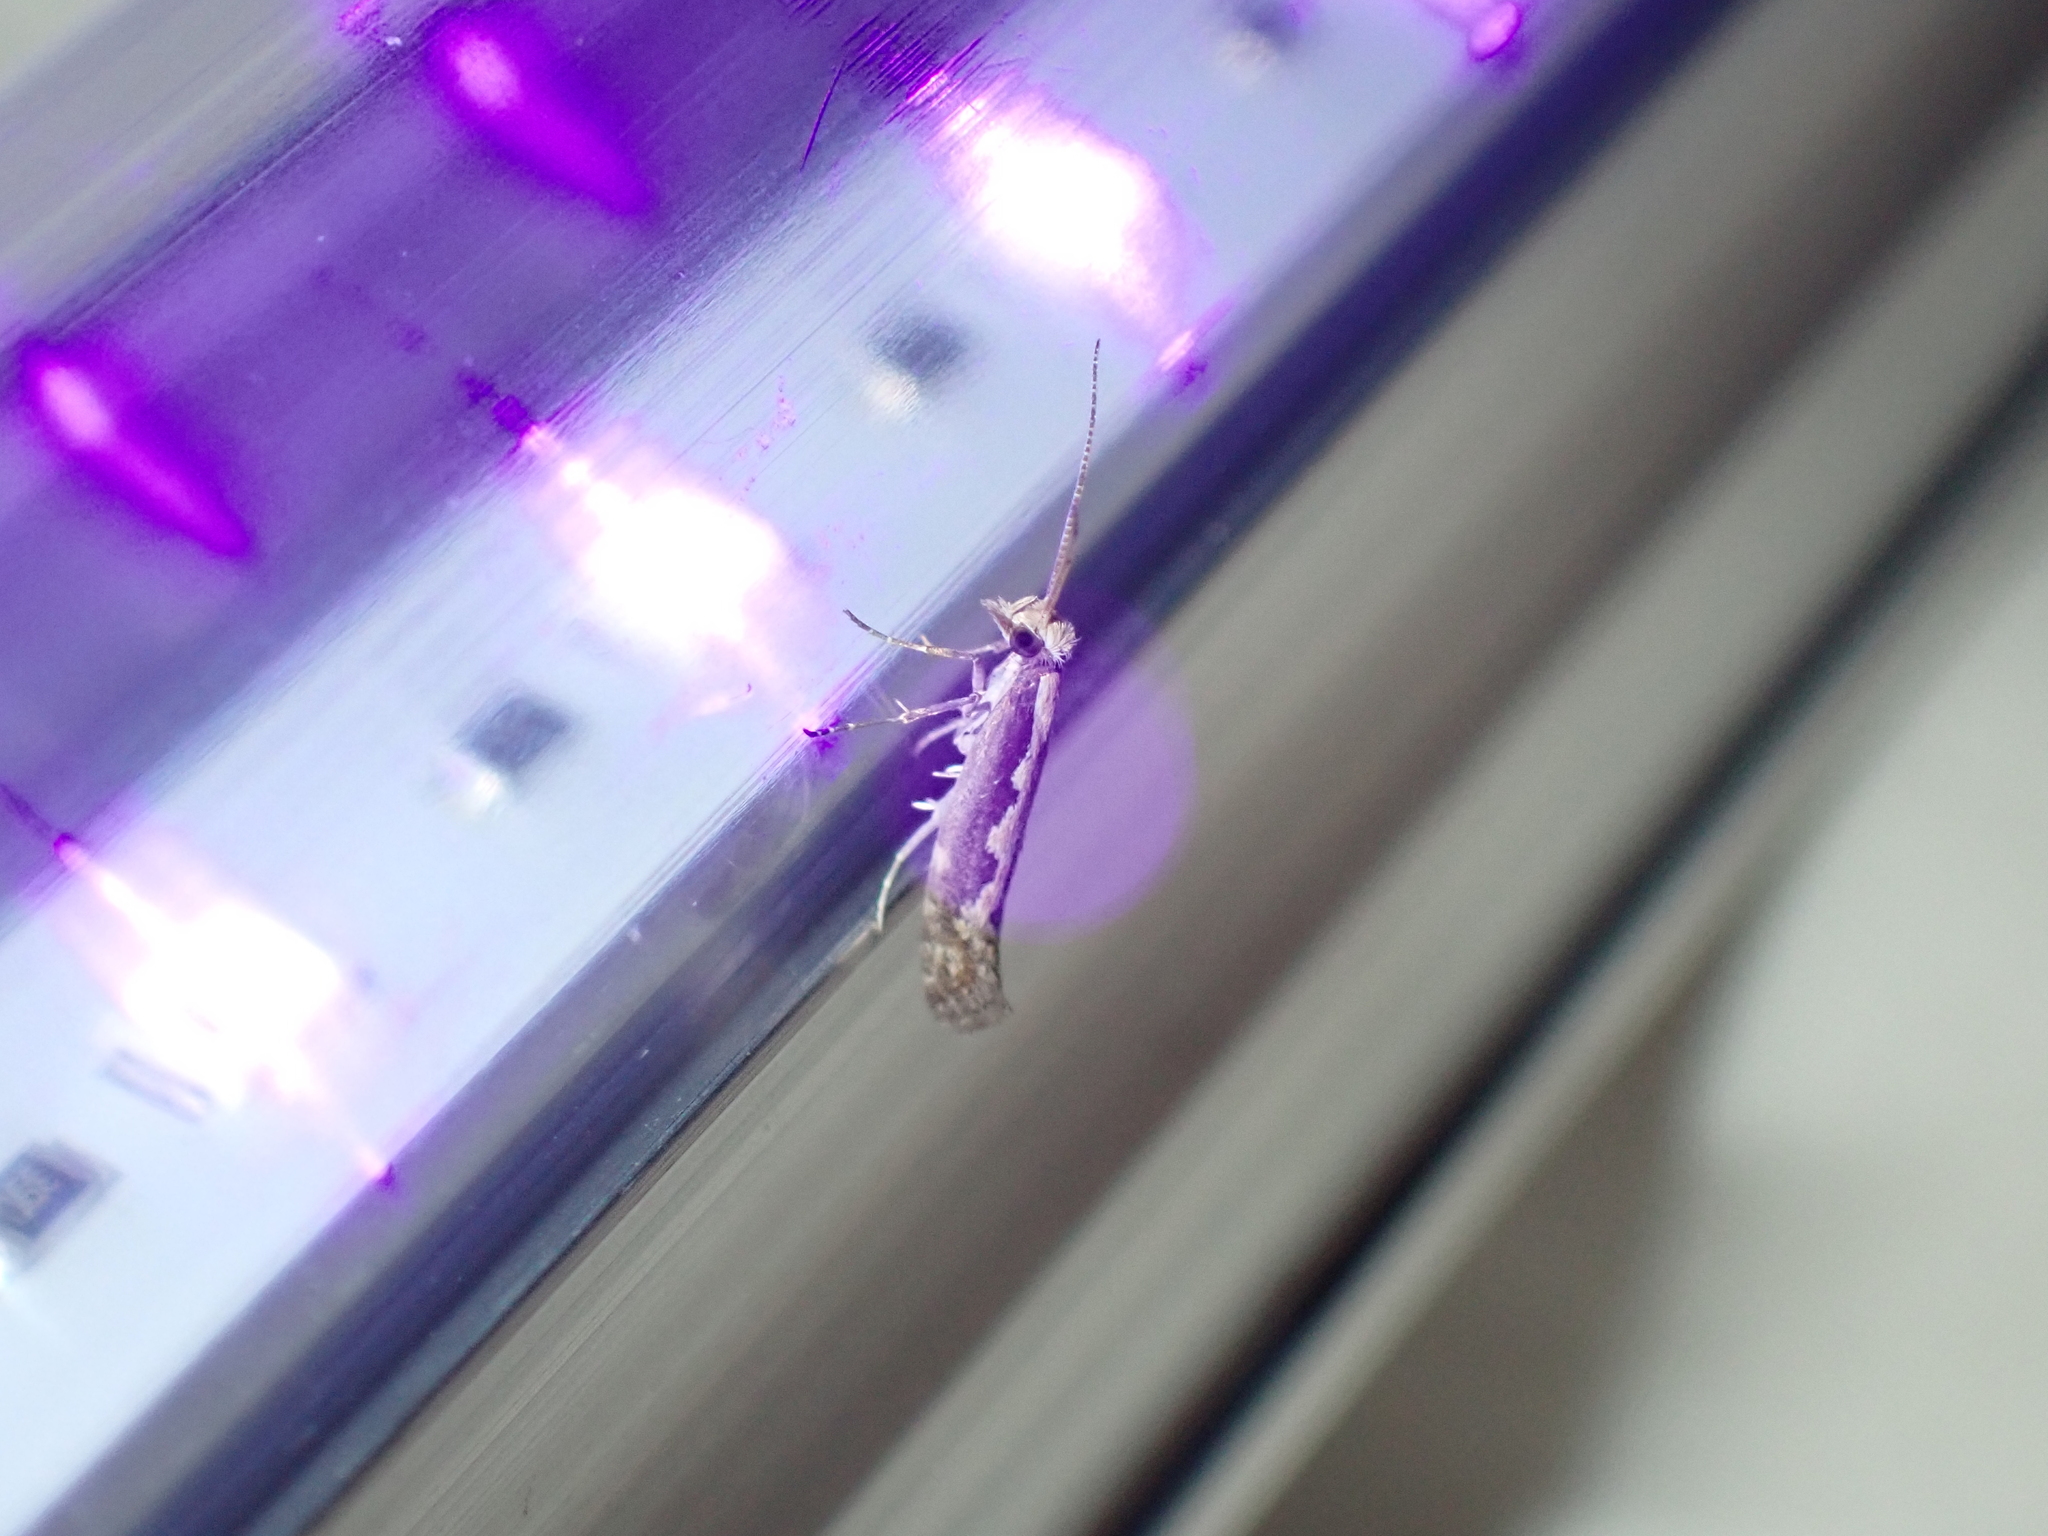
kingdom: Animalia
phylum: Arthropoda
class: Insecta
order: Lepidoptera
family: Plutellidae
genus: Plutella
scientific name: Plutella xylostella
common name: Diamond-back moth
